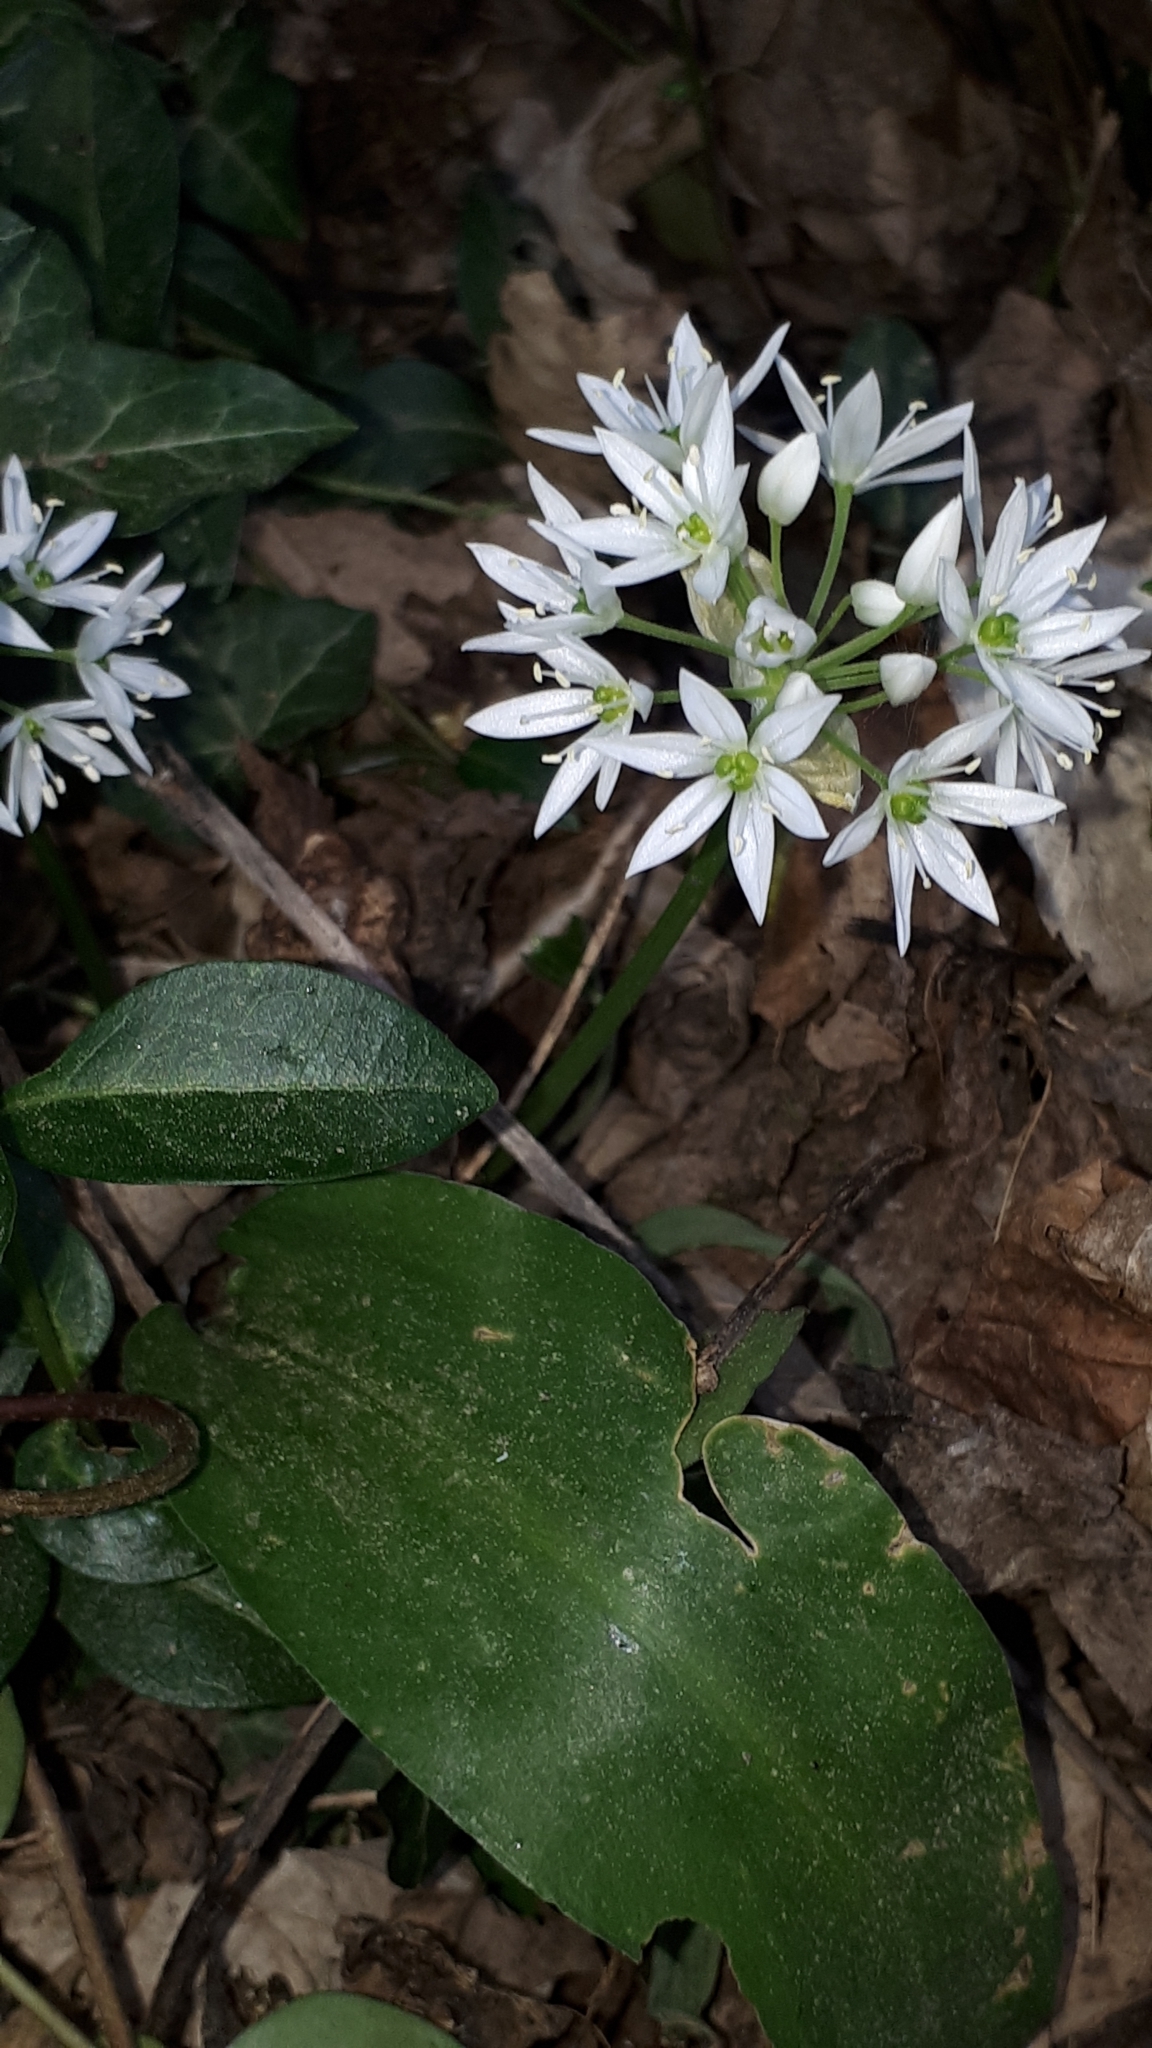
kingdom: Plantae
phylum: Tracheophyta
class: Liliopsida
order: Asparagales
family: Amaryllidaceae
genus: Allium
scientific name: Allium ursinum
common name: Ramsons
